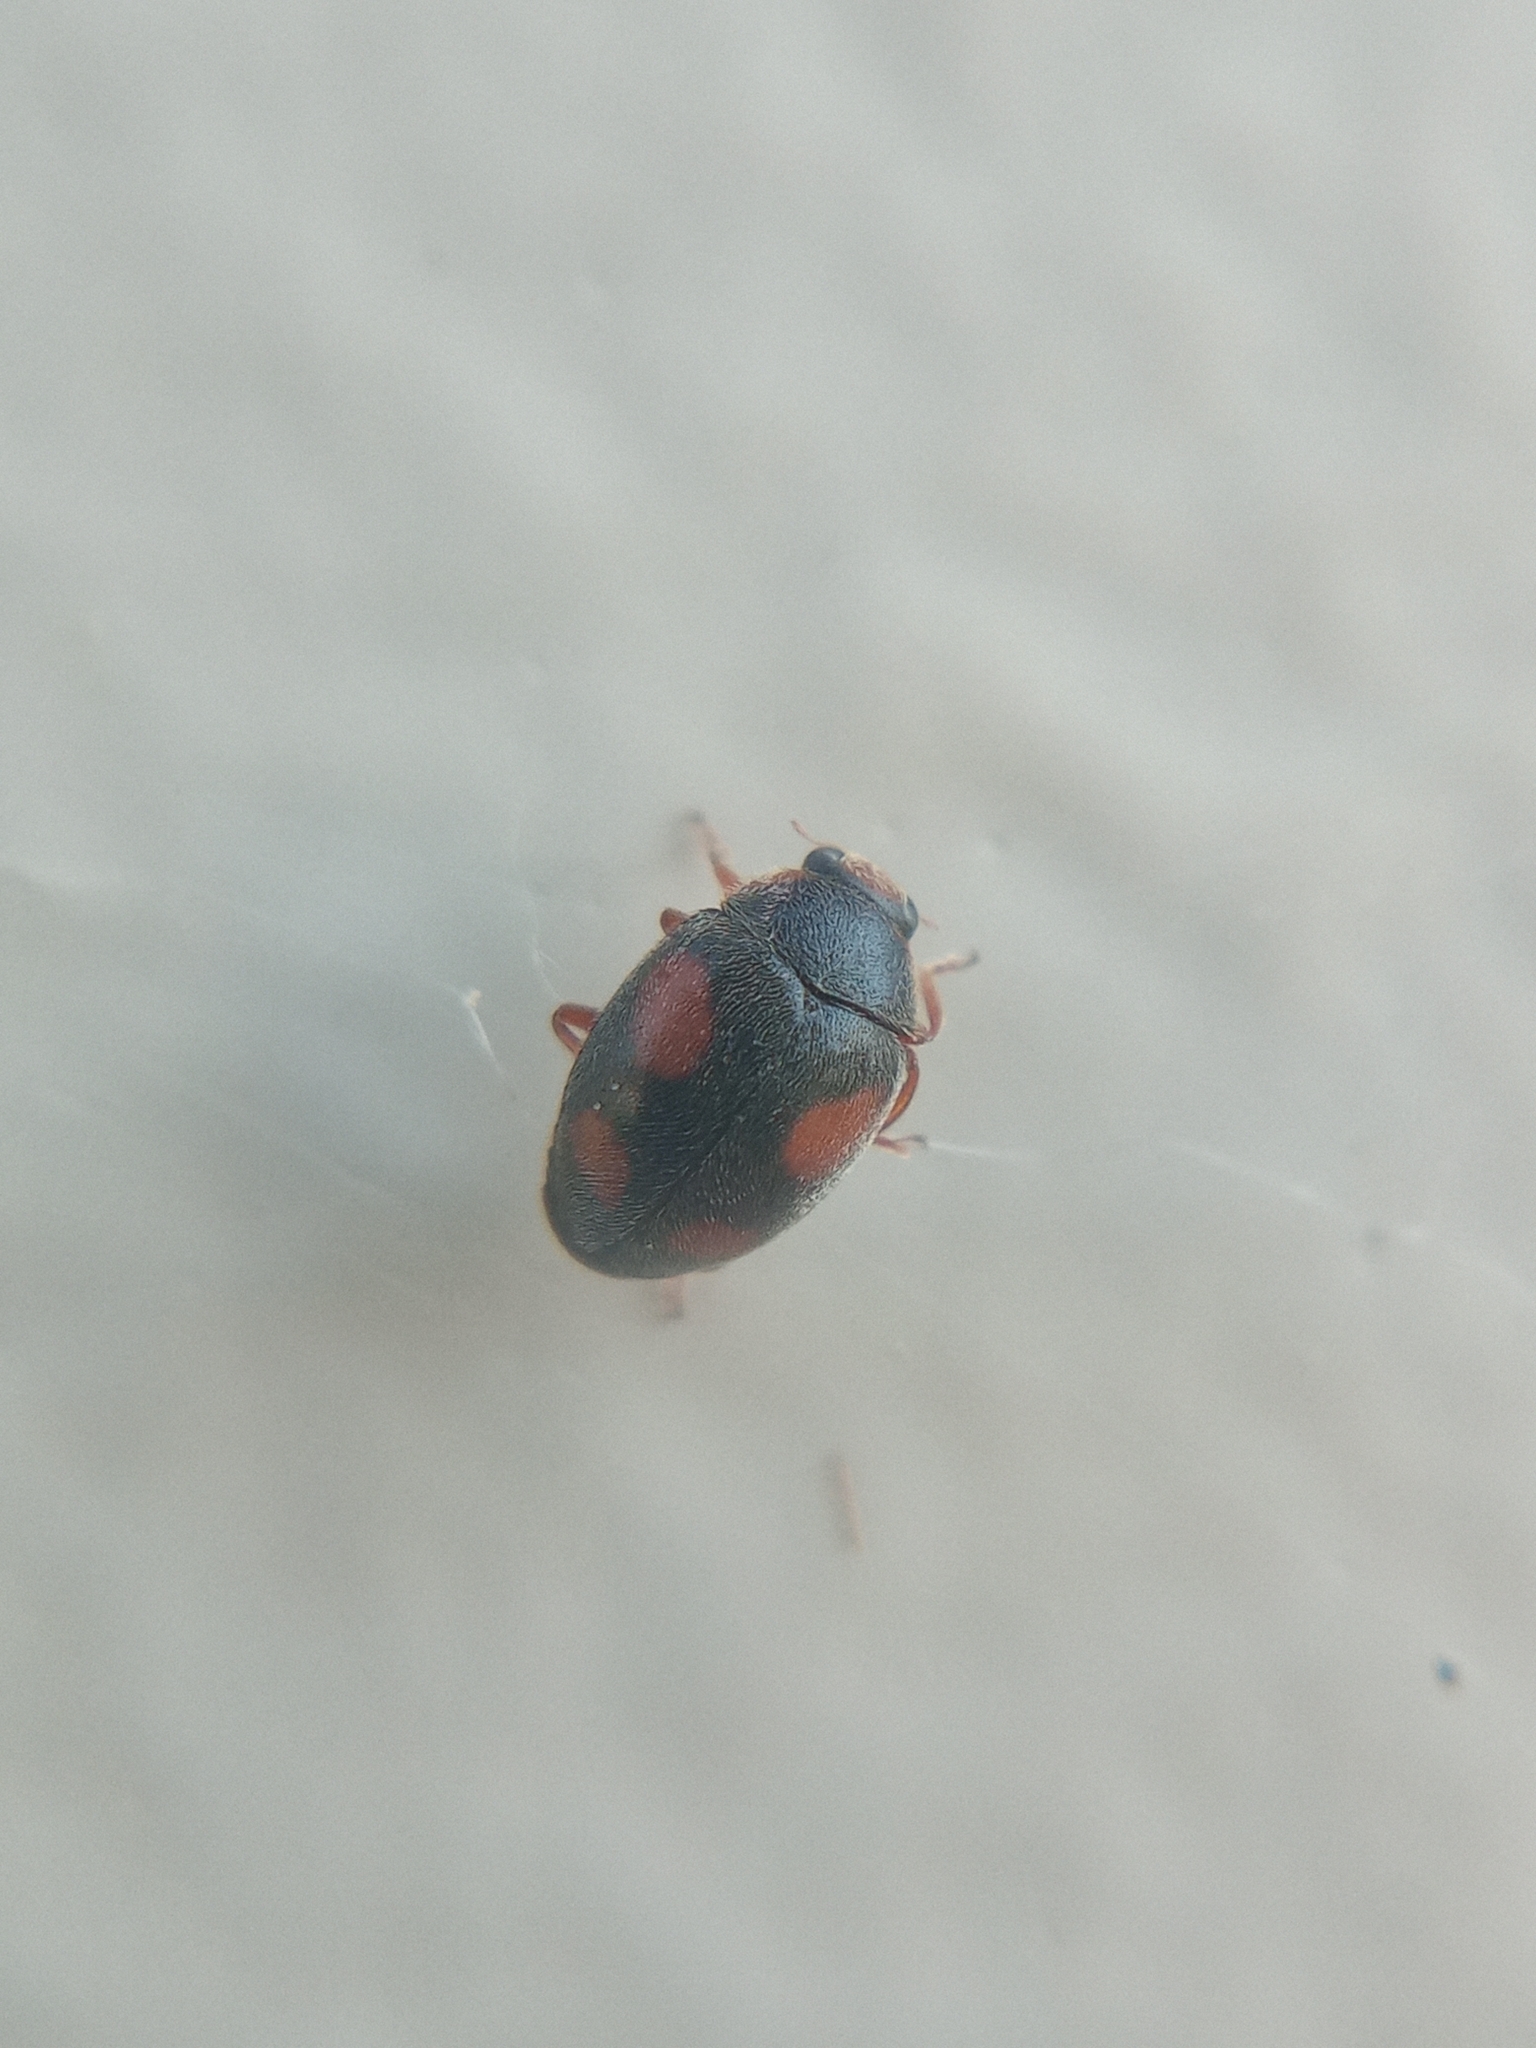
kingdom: Animalia
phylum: Arthropoda
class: Insecta
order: Coleoptera
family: Coccinellidae
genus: Scymnus
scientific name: Scymnus
